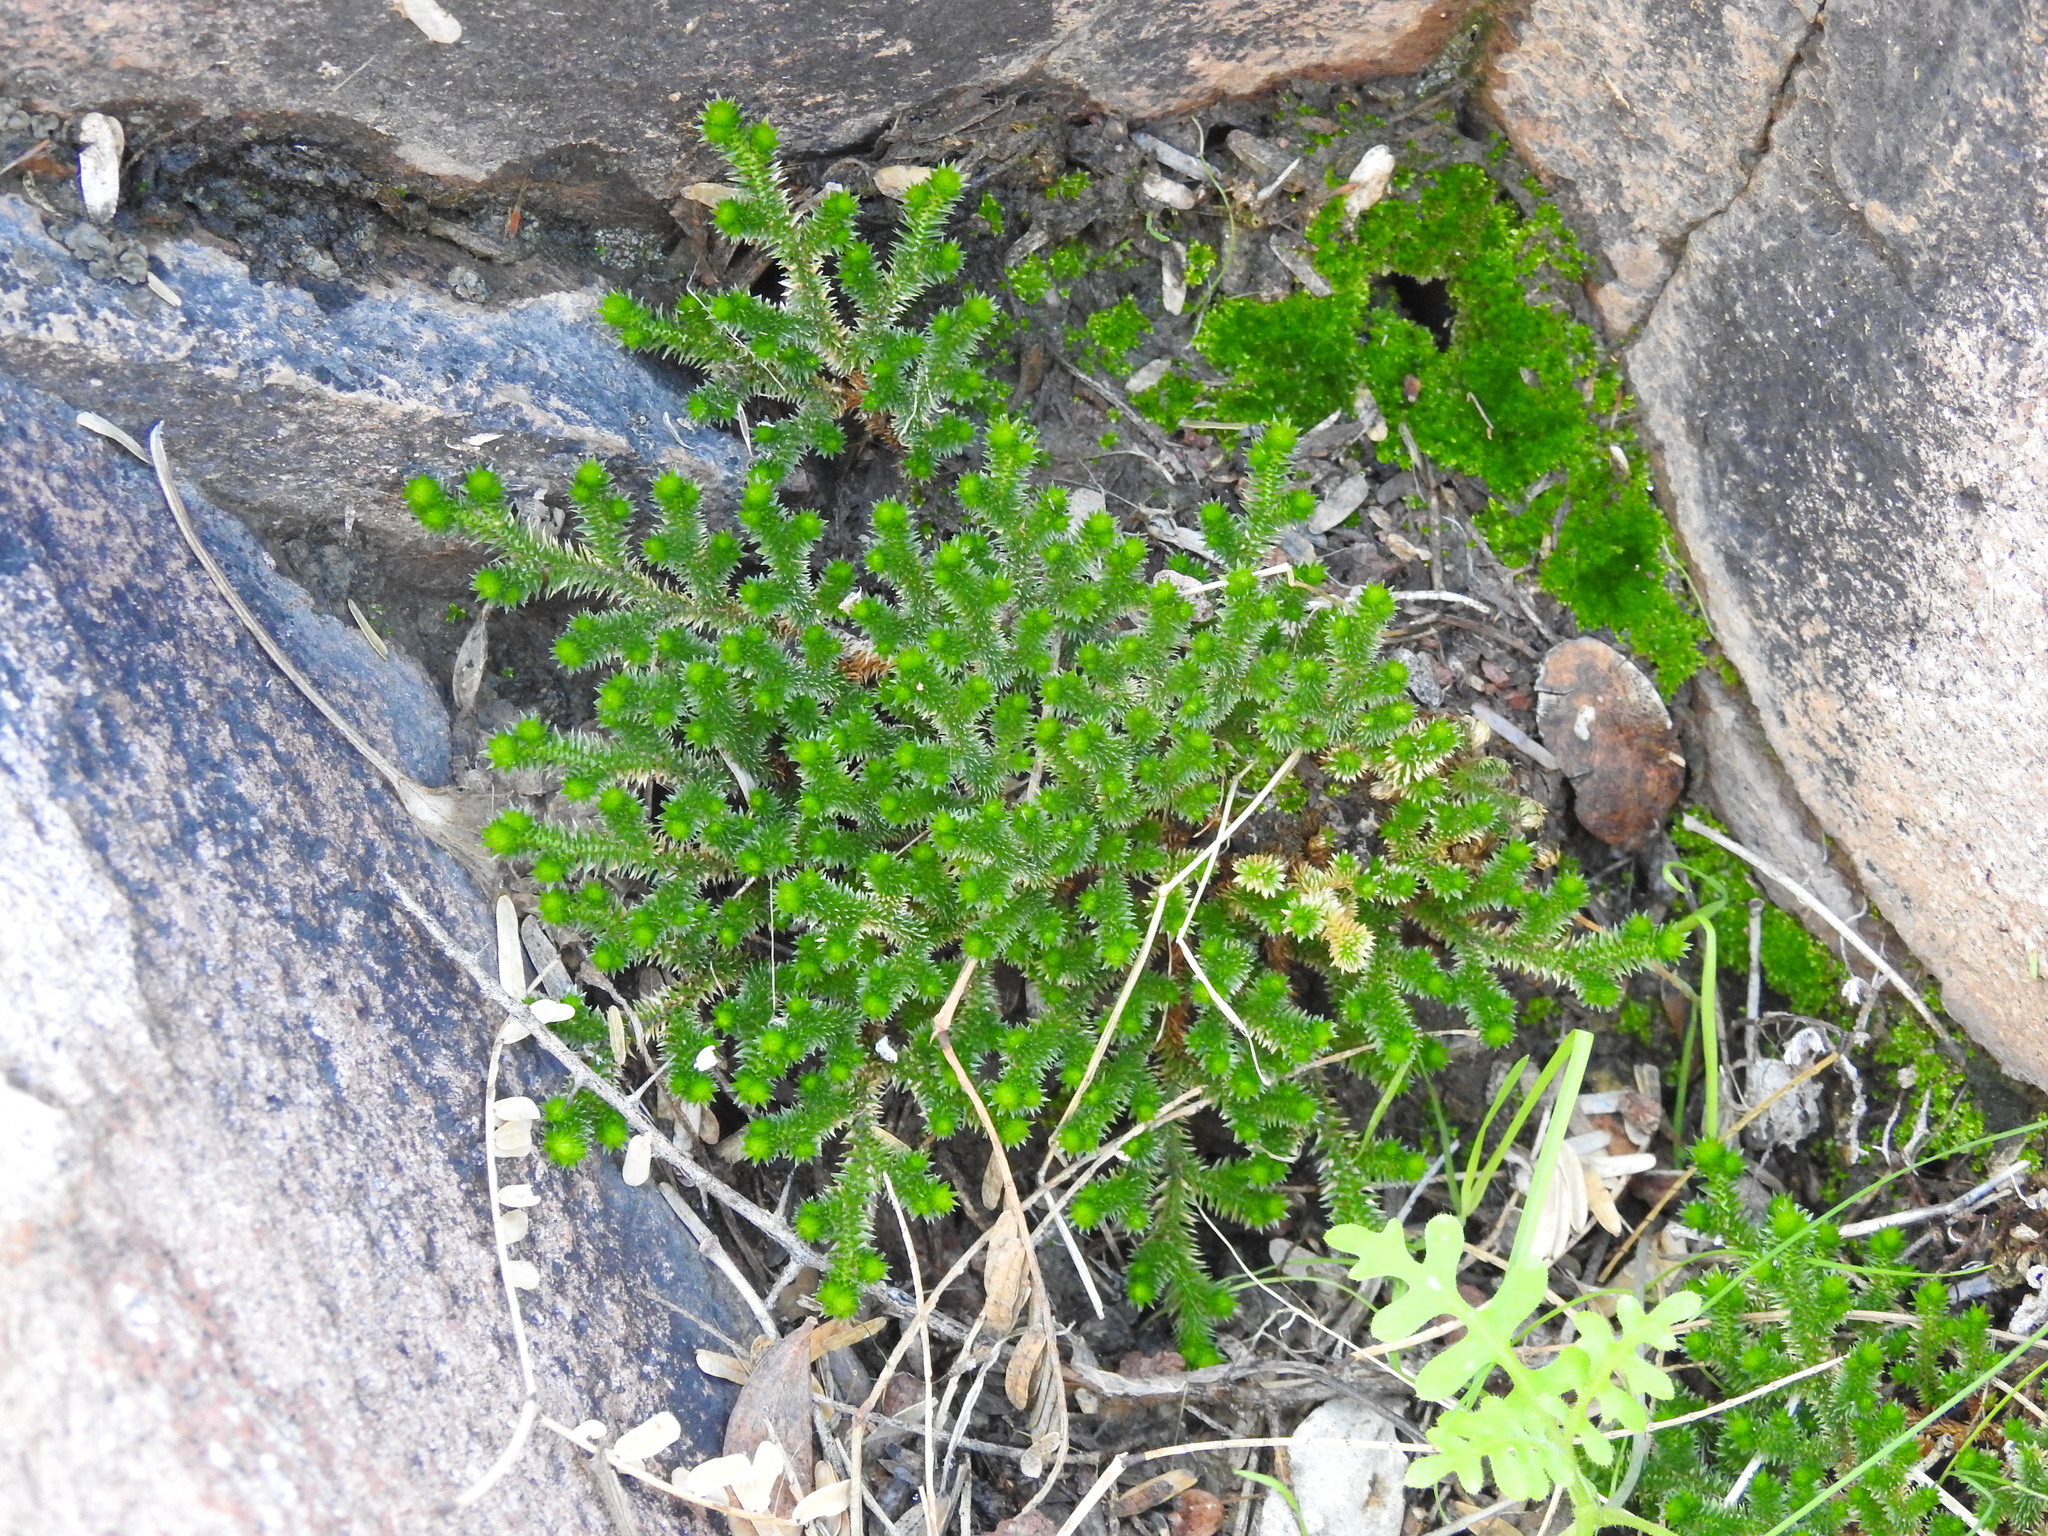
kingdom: Plantae
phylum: Tracheophyta
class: Lycopodiopsida
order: Selaginellales
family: Selaginellaceae
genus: Selaginella
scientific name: Selaginella arizonica
